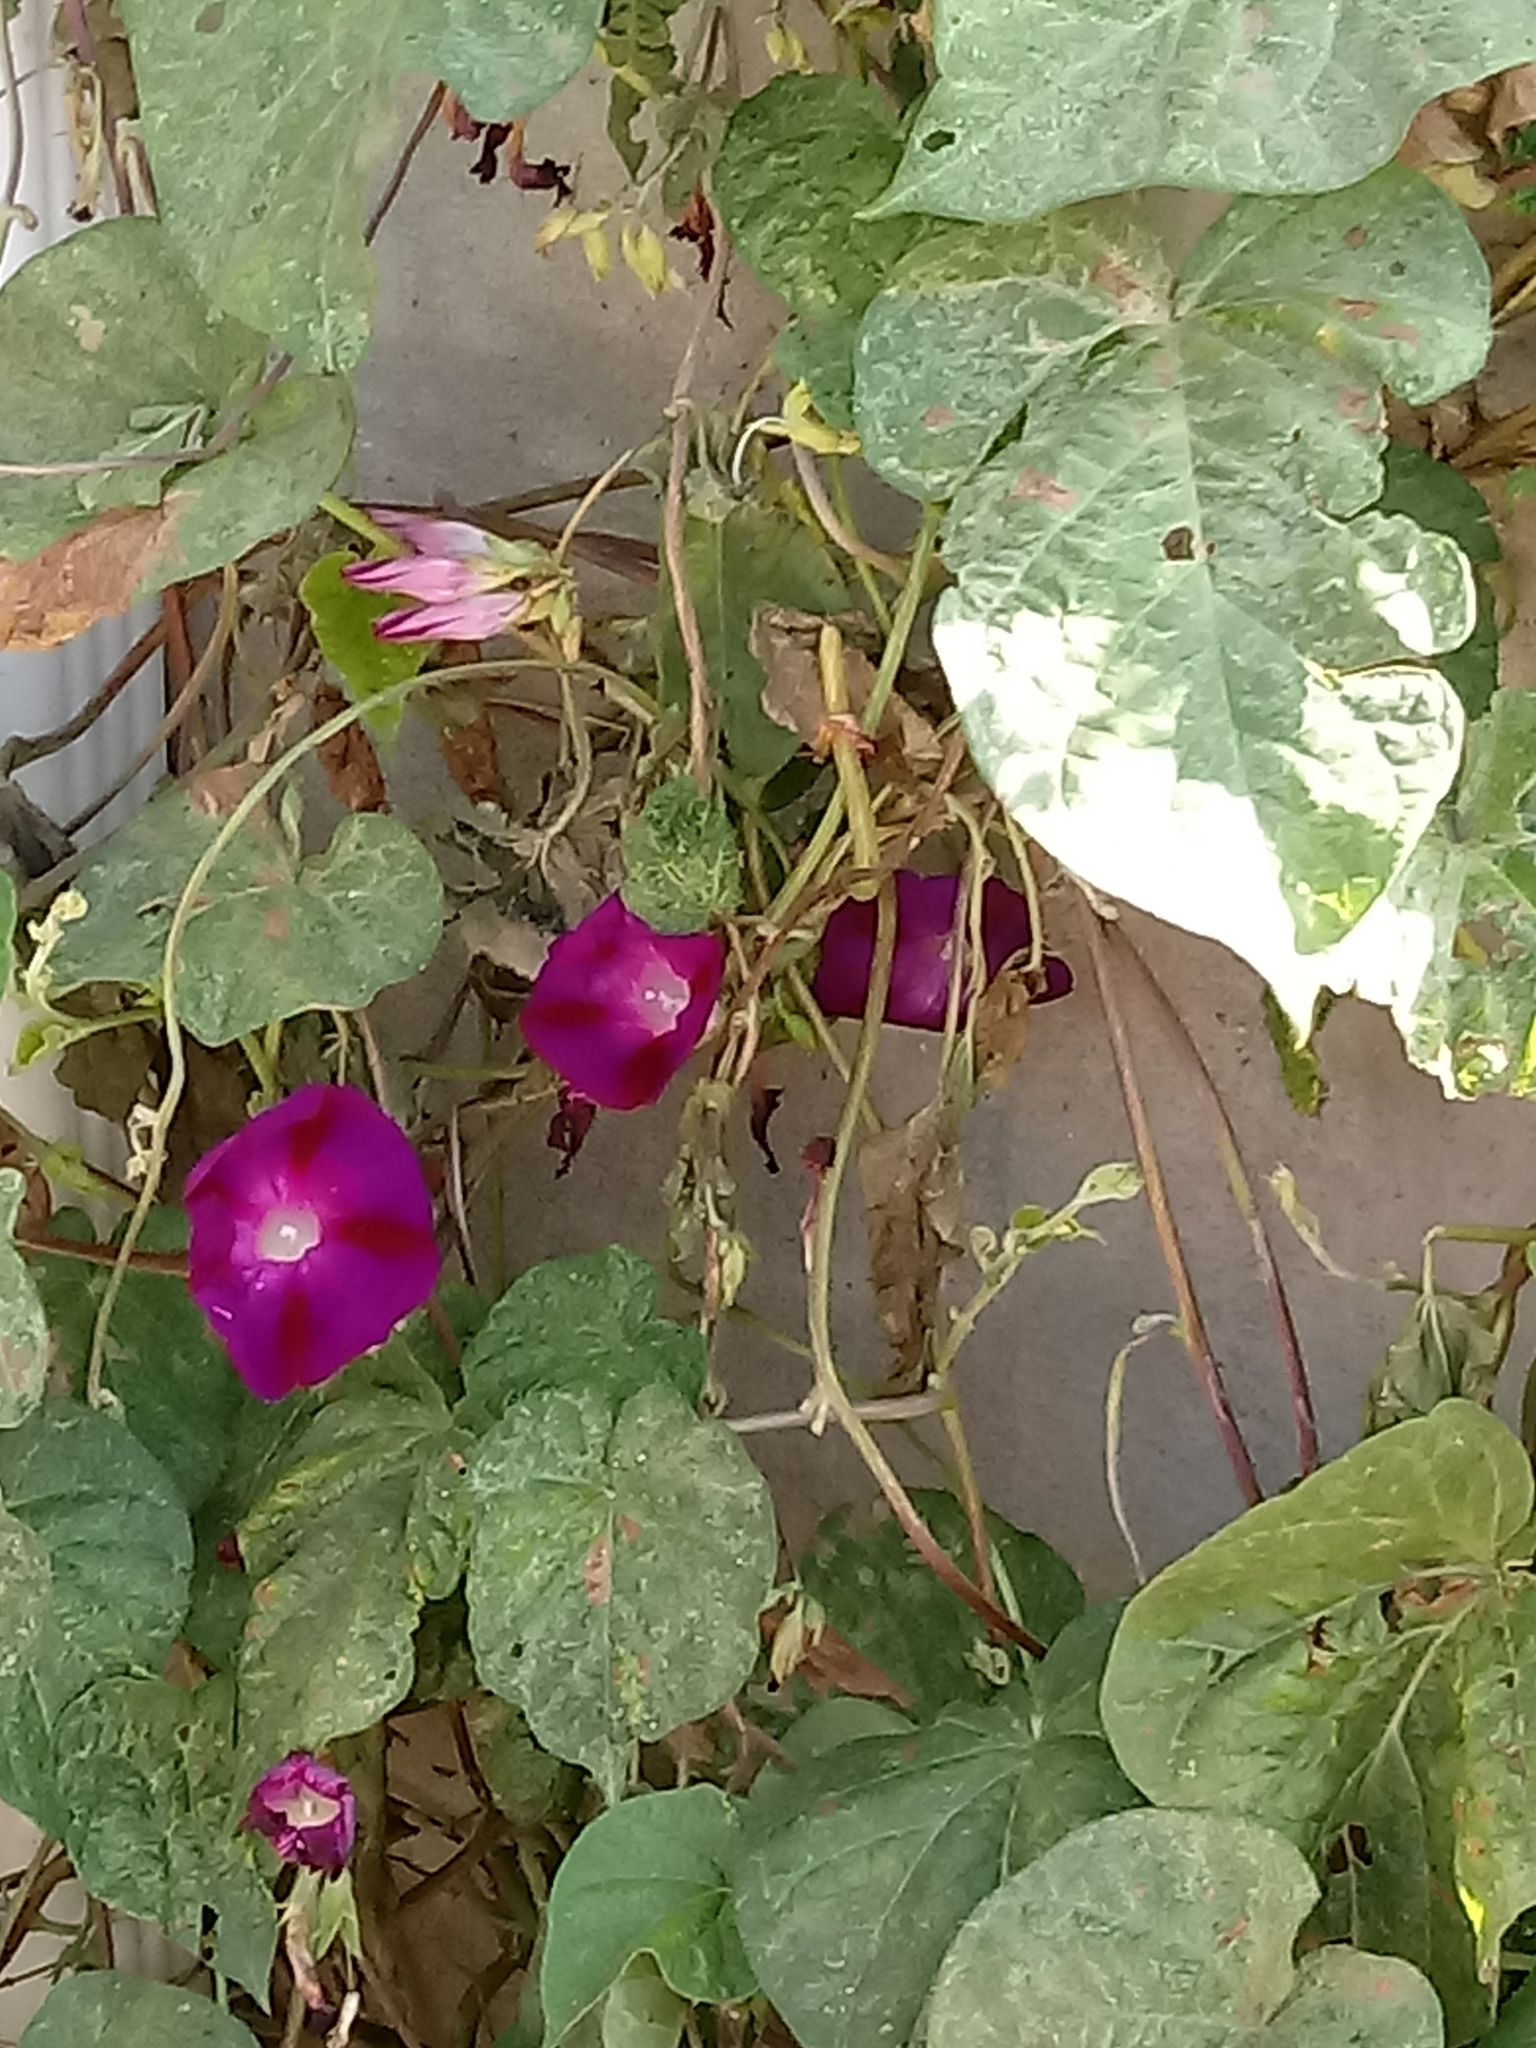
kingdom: Plantae
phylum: Tracheophyta
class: Magnoliopsida
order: Solanales
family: Convolvulaceae
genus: Ipomoea
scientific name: Ipomoea purpurea
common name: Common morning-glory
